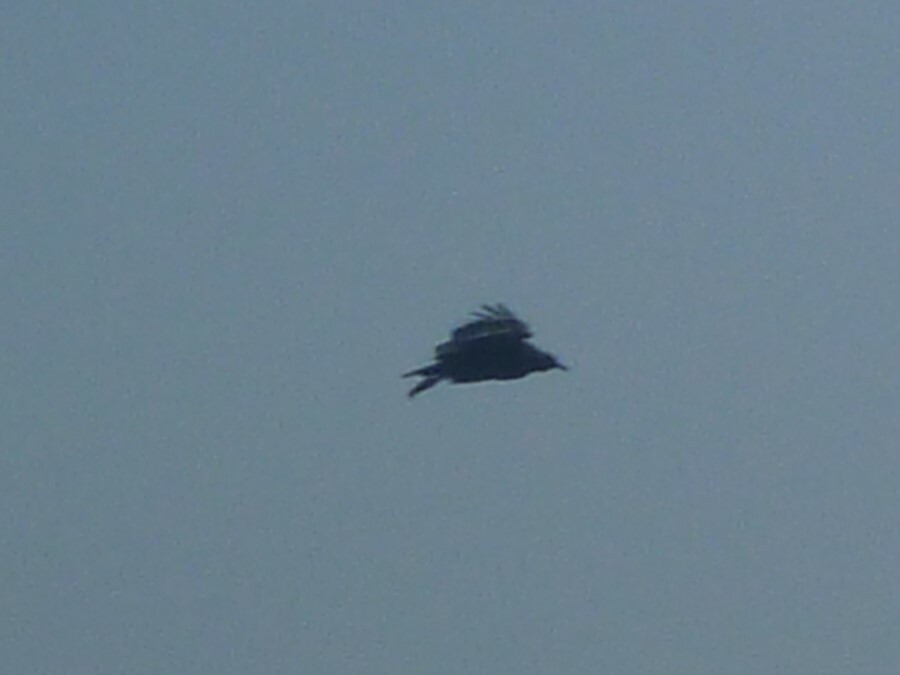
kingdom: Animalia
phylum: Chordata
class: Aves
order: Accipitriformes
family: Cathartidae
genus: Coragyps
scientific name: Coragyps atratus
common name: Black vulture
